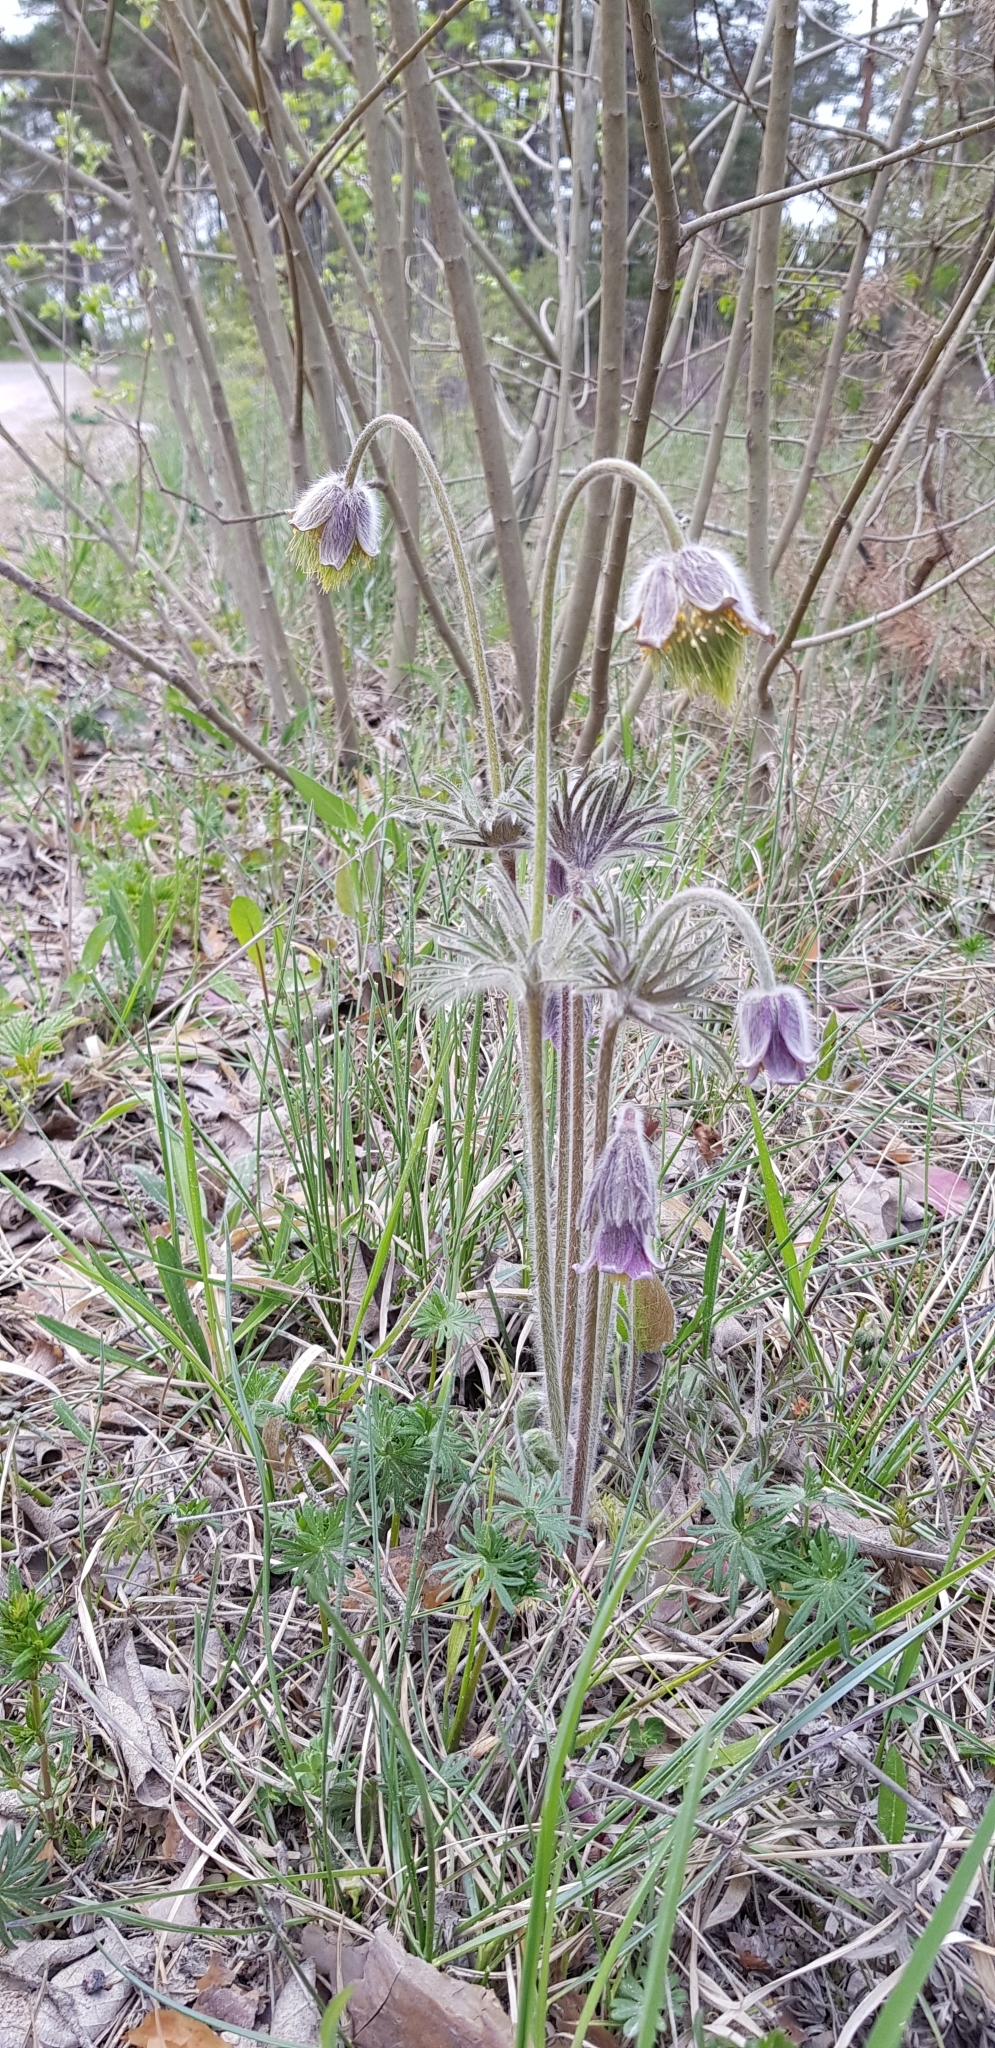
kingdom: Plantae
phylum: Tracheophyta
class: Magnoliopsida
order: Ranunculales
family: Ranunculaceae
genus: Pulsatilla
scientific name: Pulsatilla pratensis
